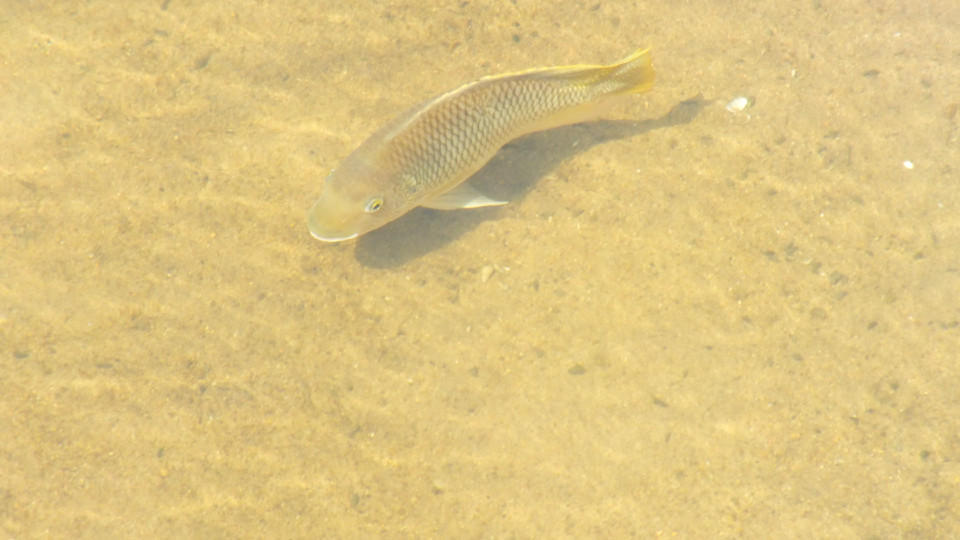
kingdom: Animalia
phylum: Chordata
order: Perciformes
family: Cichlidae
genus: Coptodon
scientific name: Coptodon rendalli
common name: Redbreast tilapia
